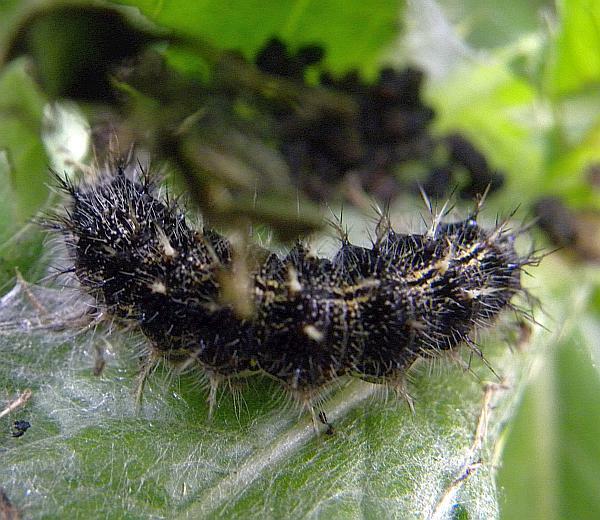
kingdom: Animalia
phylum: Arthropoda
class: Insecta
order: Lepidoptera
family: Nymphalidae
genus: Vanessa
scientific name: Vanessa cardui
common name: Painted lady
